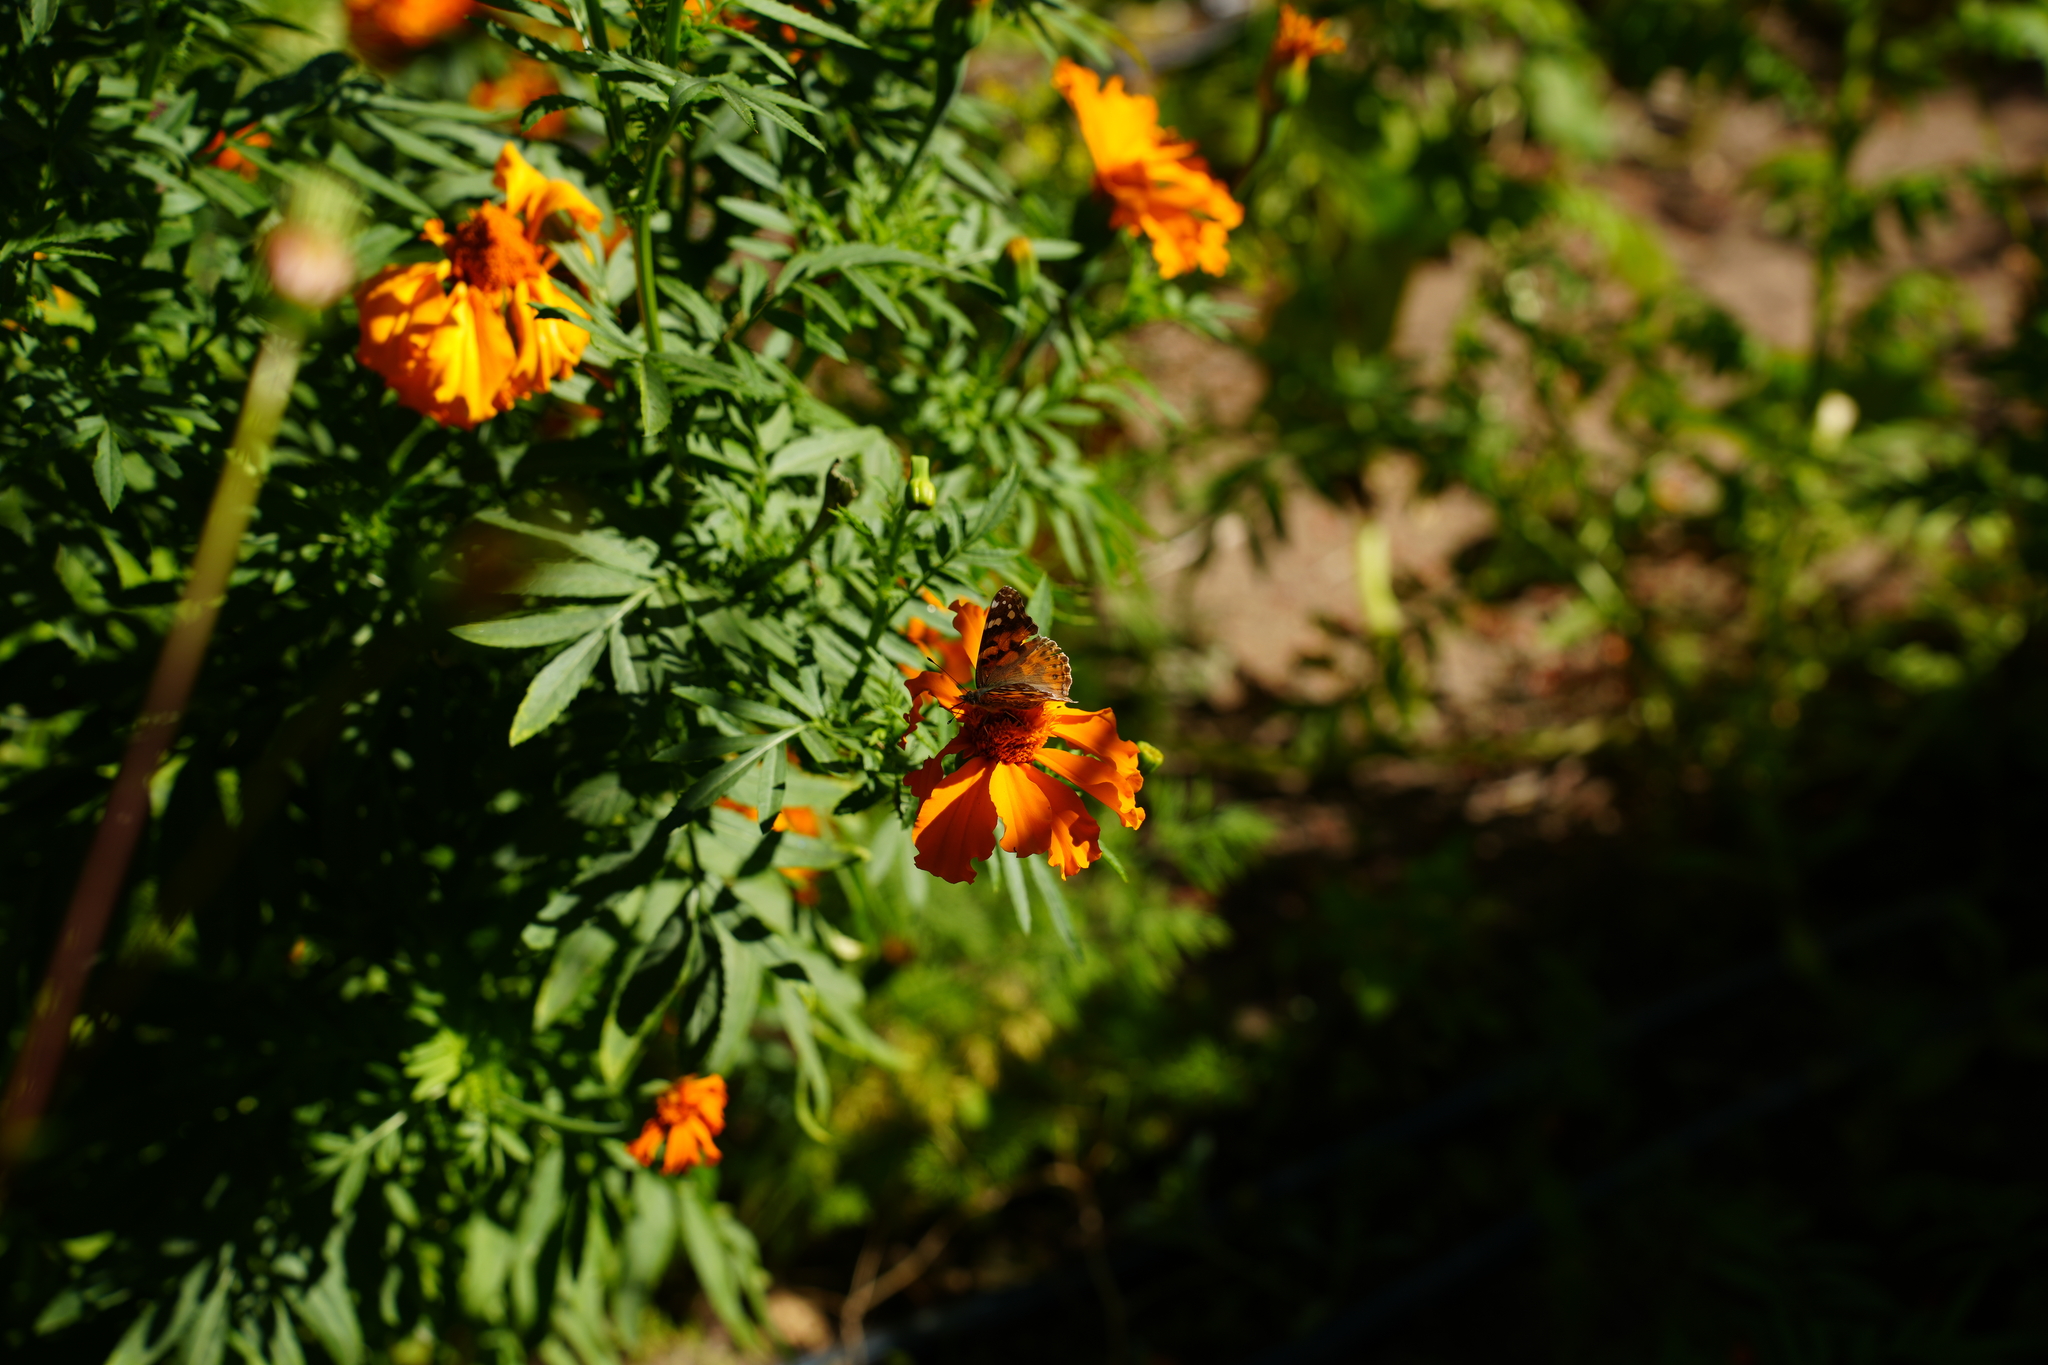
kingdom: Animalia
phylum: Arthropoda
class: Insecta
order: Lepidoptera
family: Nymphalidae
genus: Vanessa
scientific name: Vanessa cardui
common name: Painted lady
